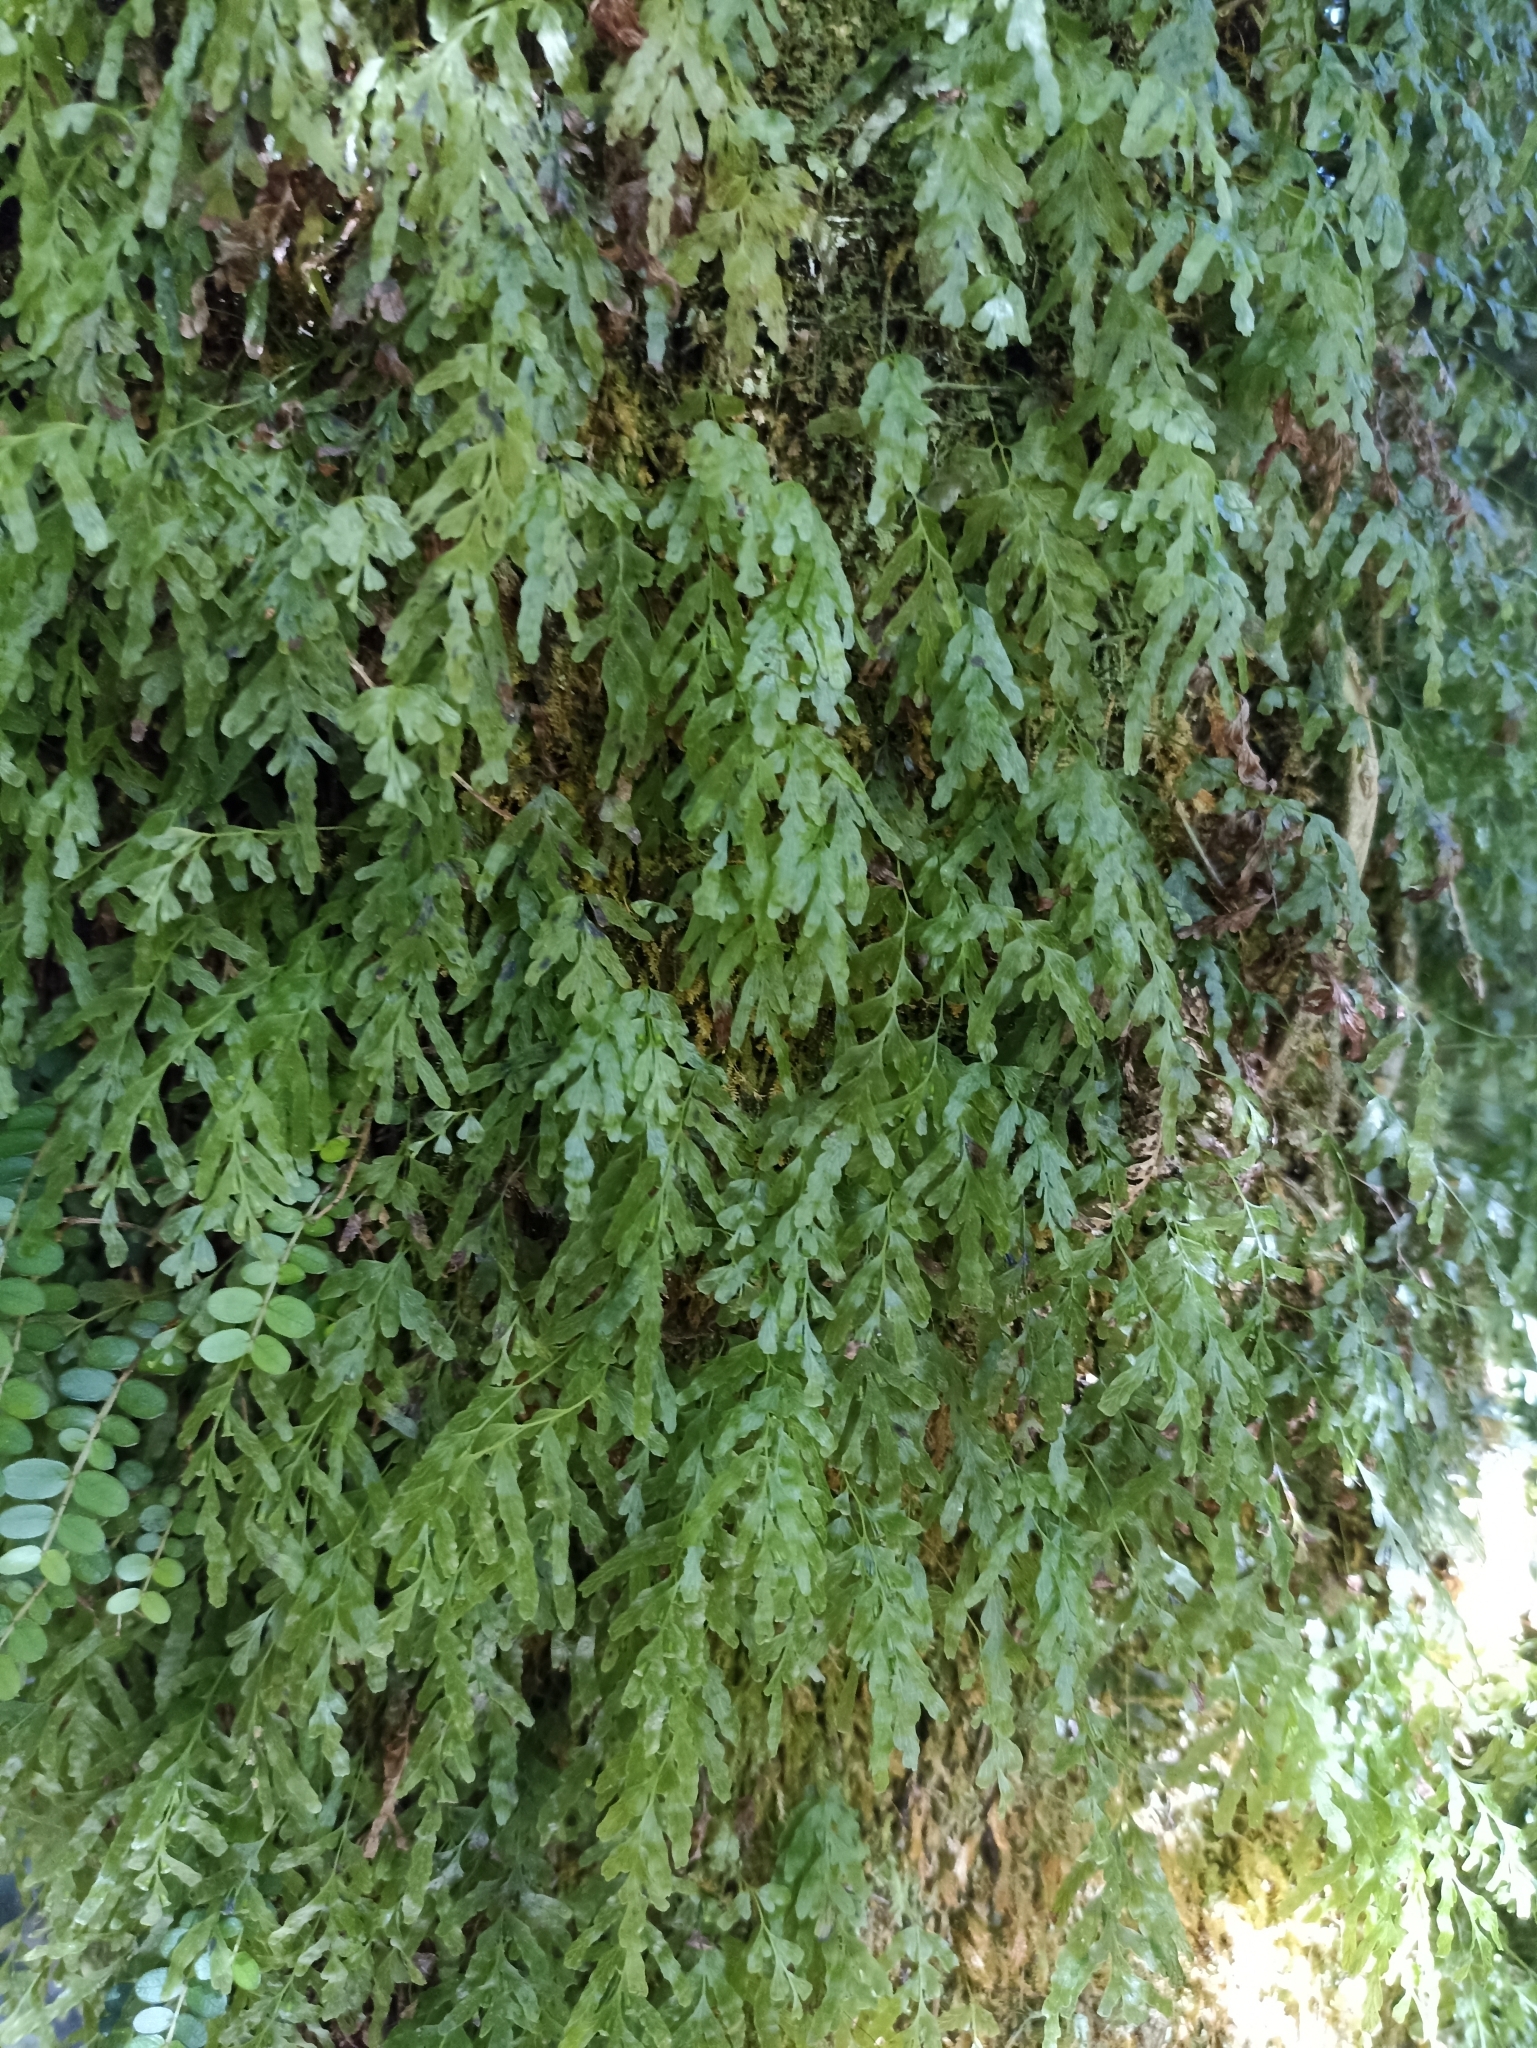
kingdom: Plantae
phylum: Tracheophyta
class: Polypodiopsida
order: Hymenophyllales
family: Hymenophyllaceae
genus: Polyphlebium
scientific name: Polyphlebium venosum
